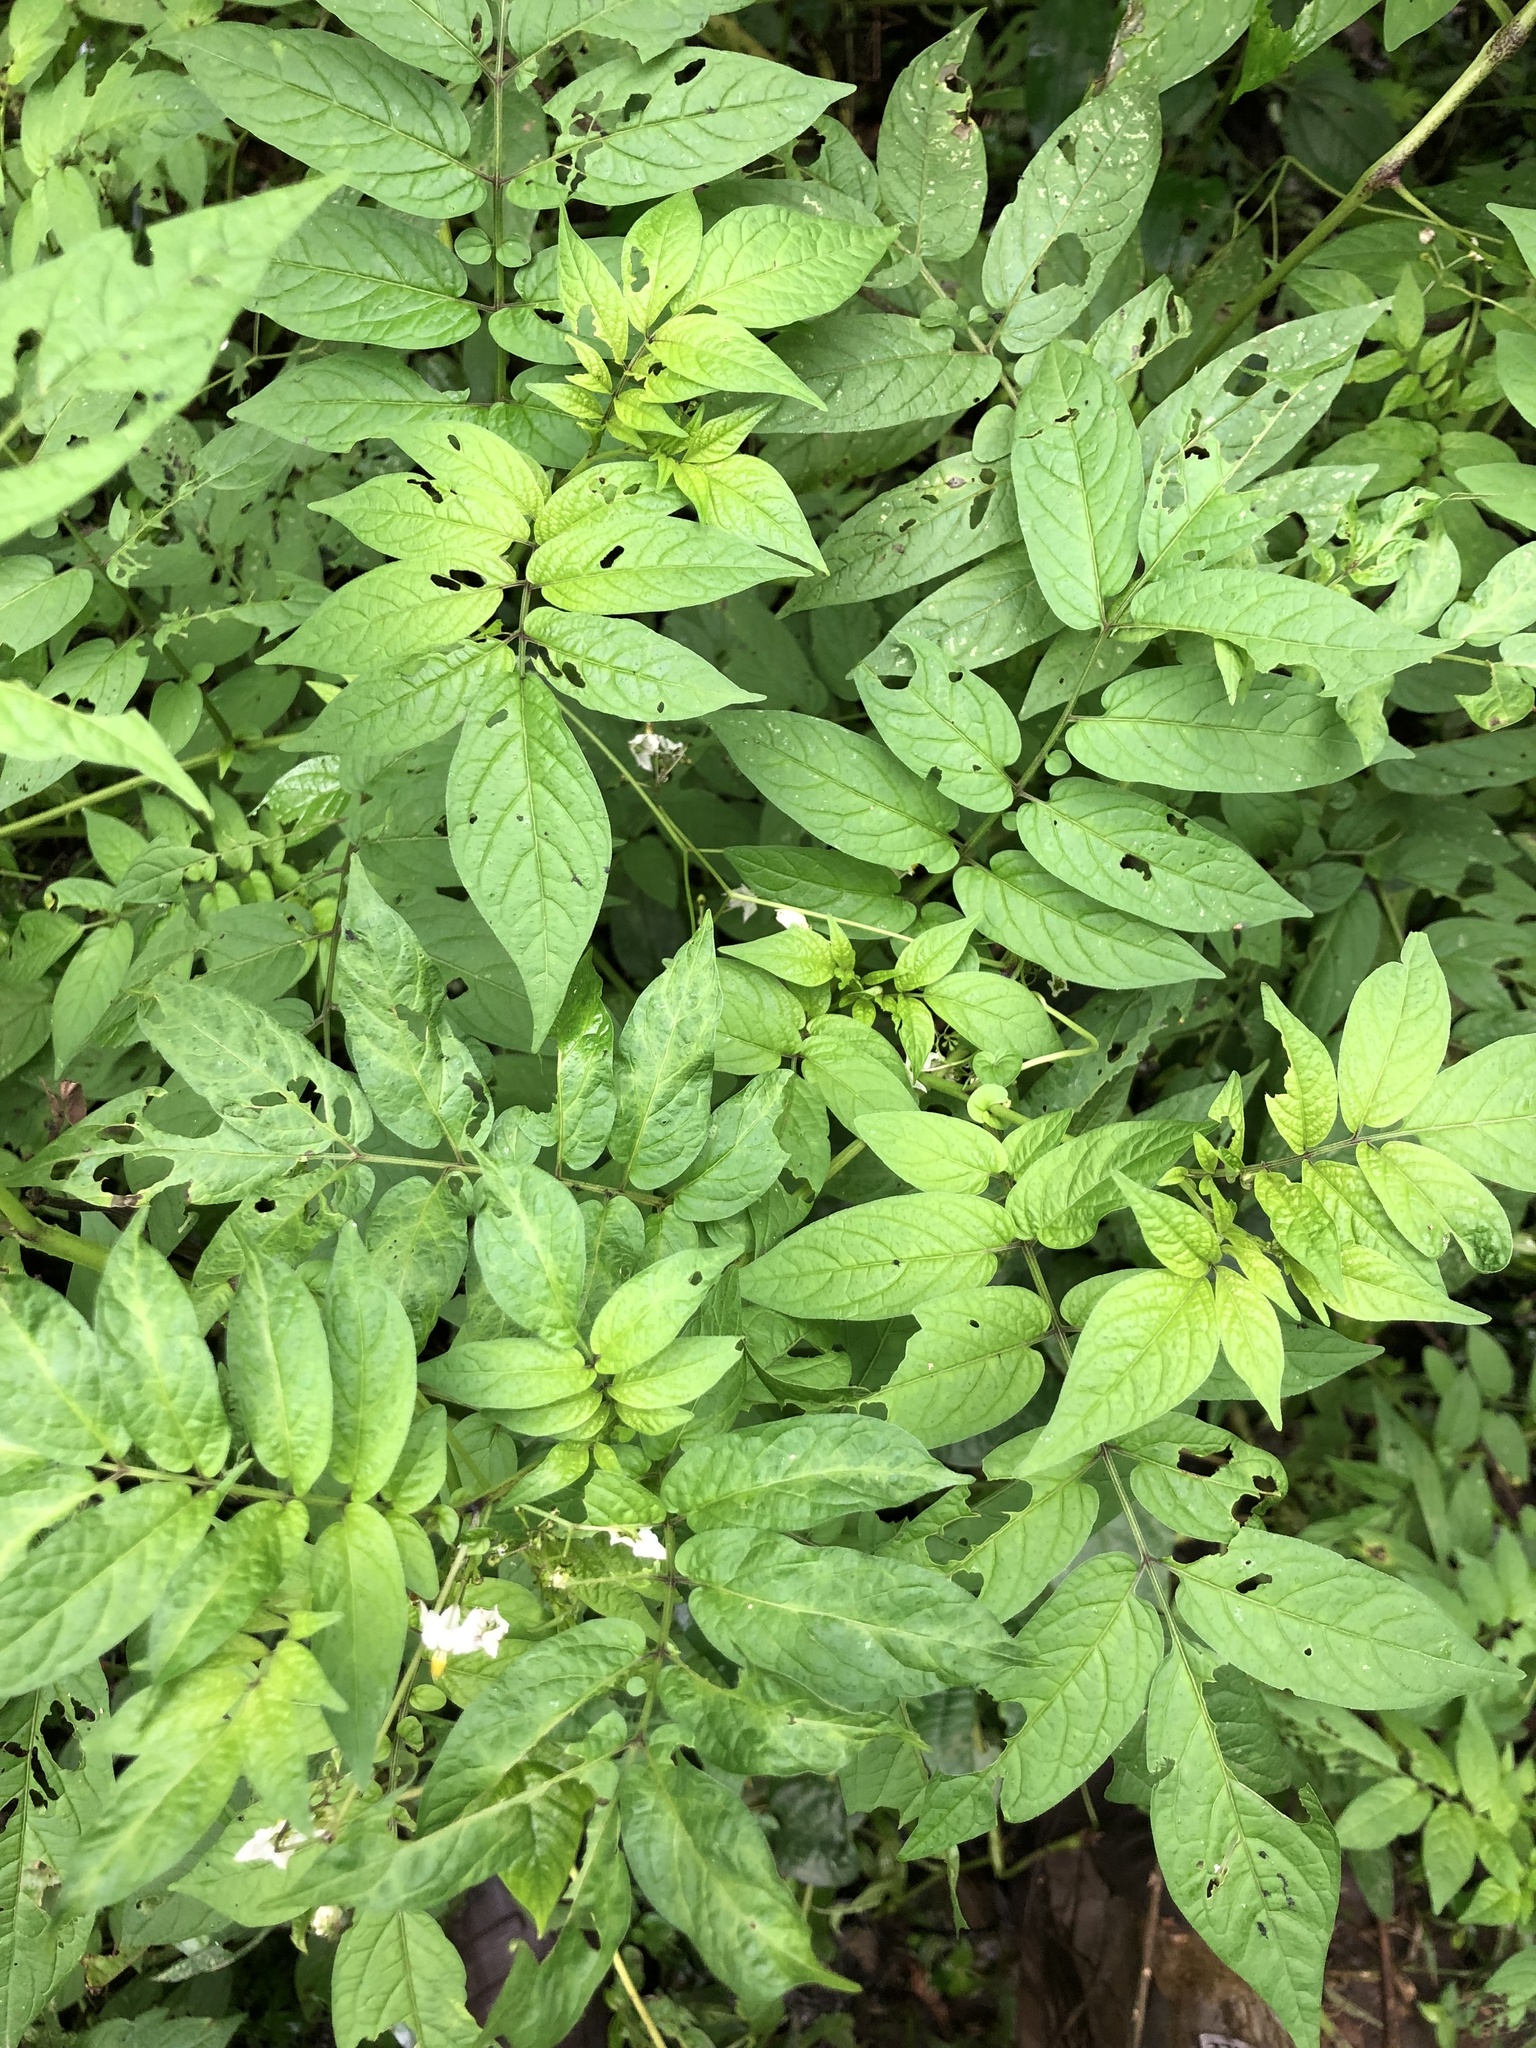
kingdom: Plantae
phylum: Tracheophyta
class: Magnoliopsida
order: Solanales
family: Solanaceae
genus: Solanum
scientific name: Solanum canense
